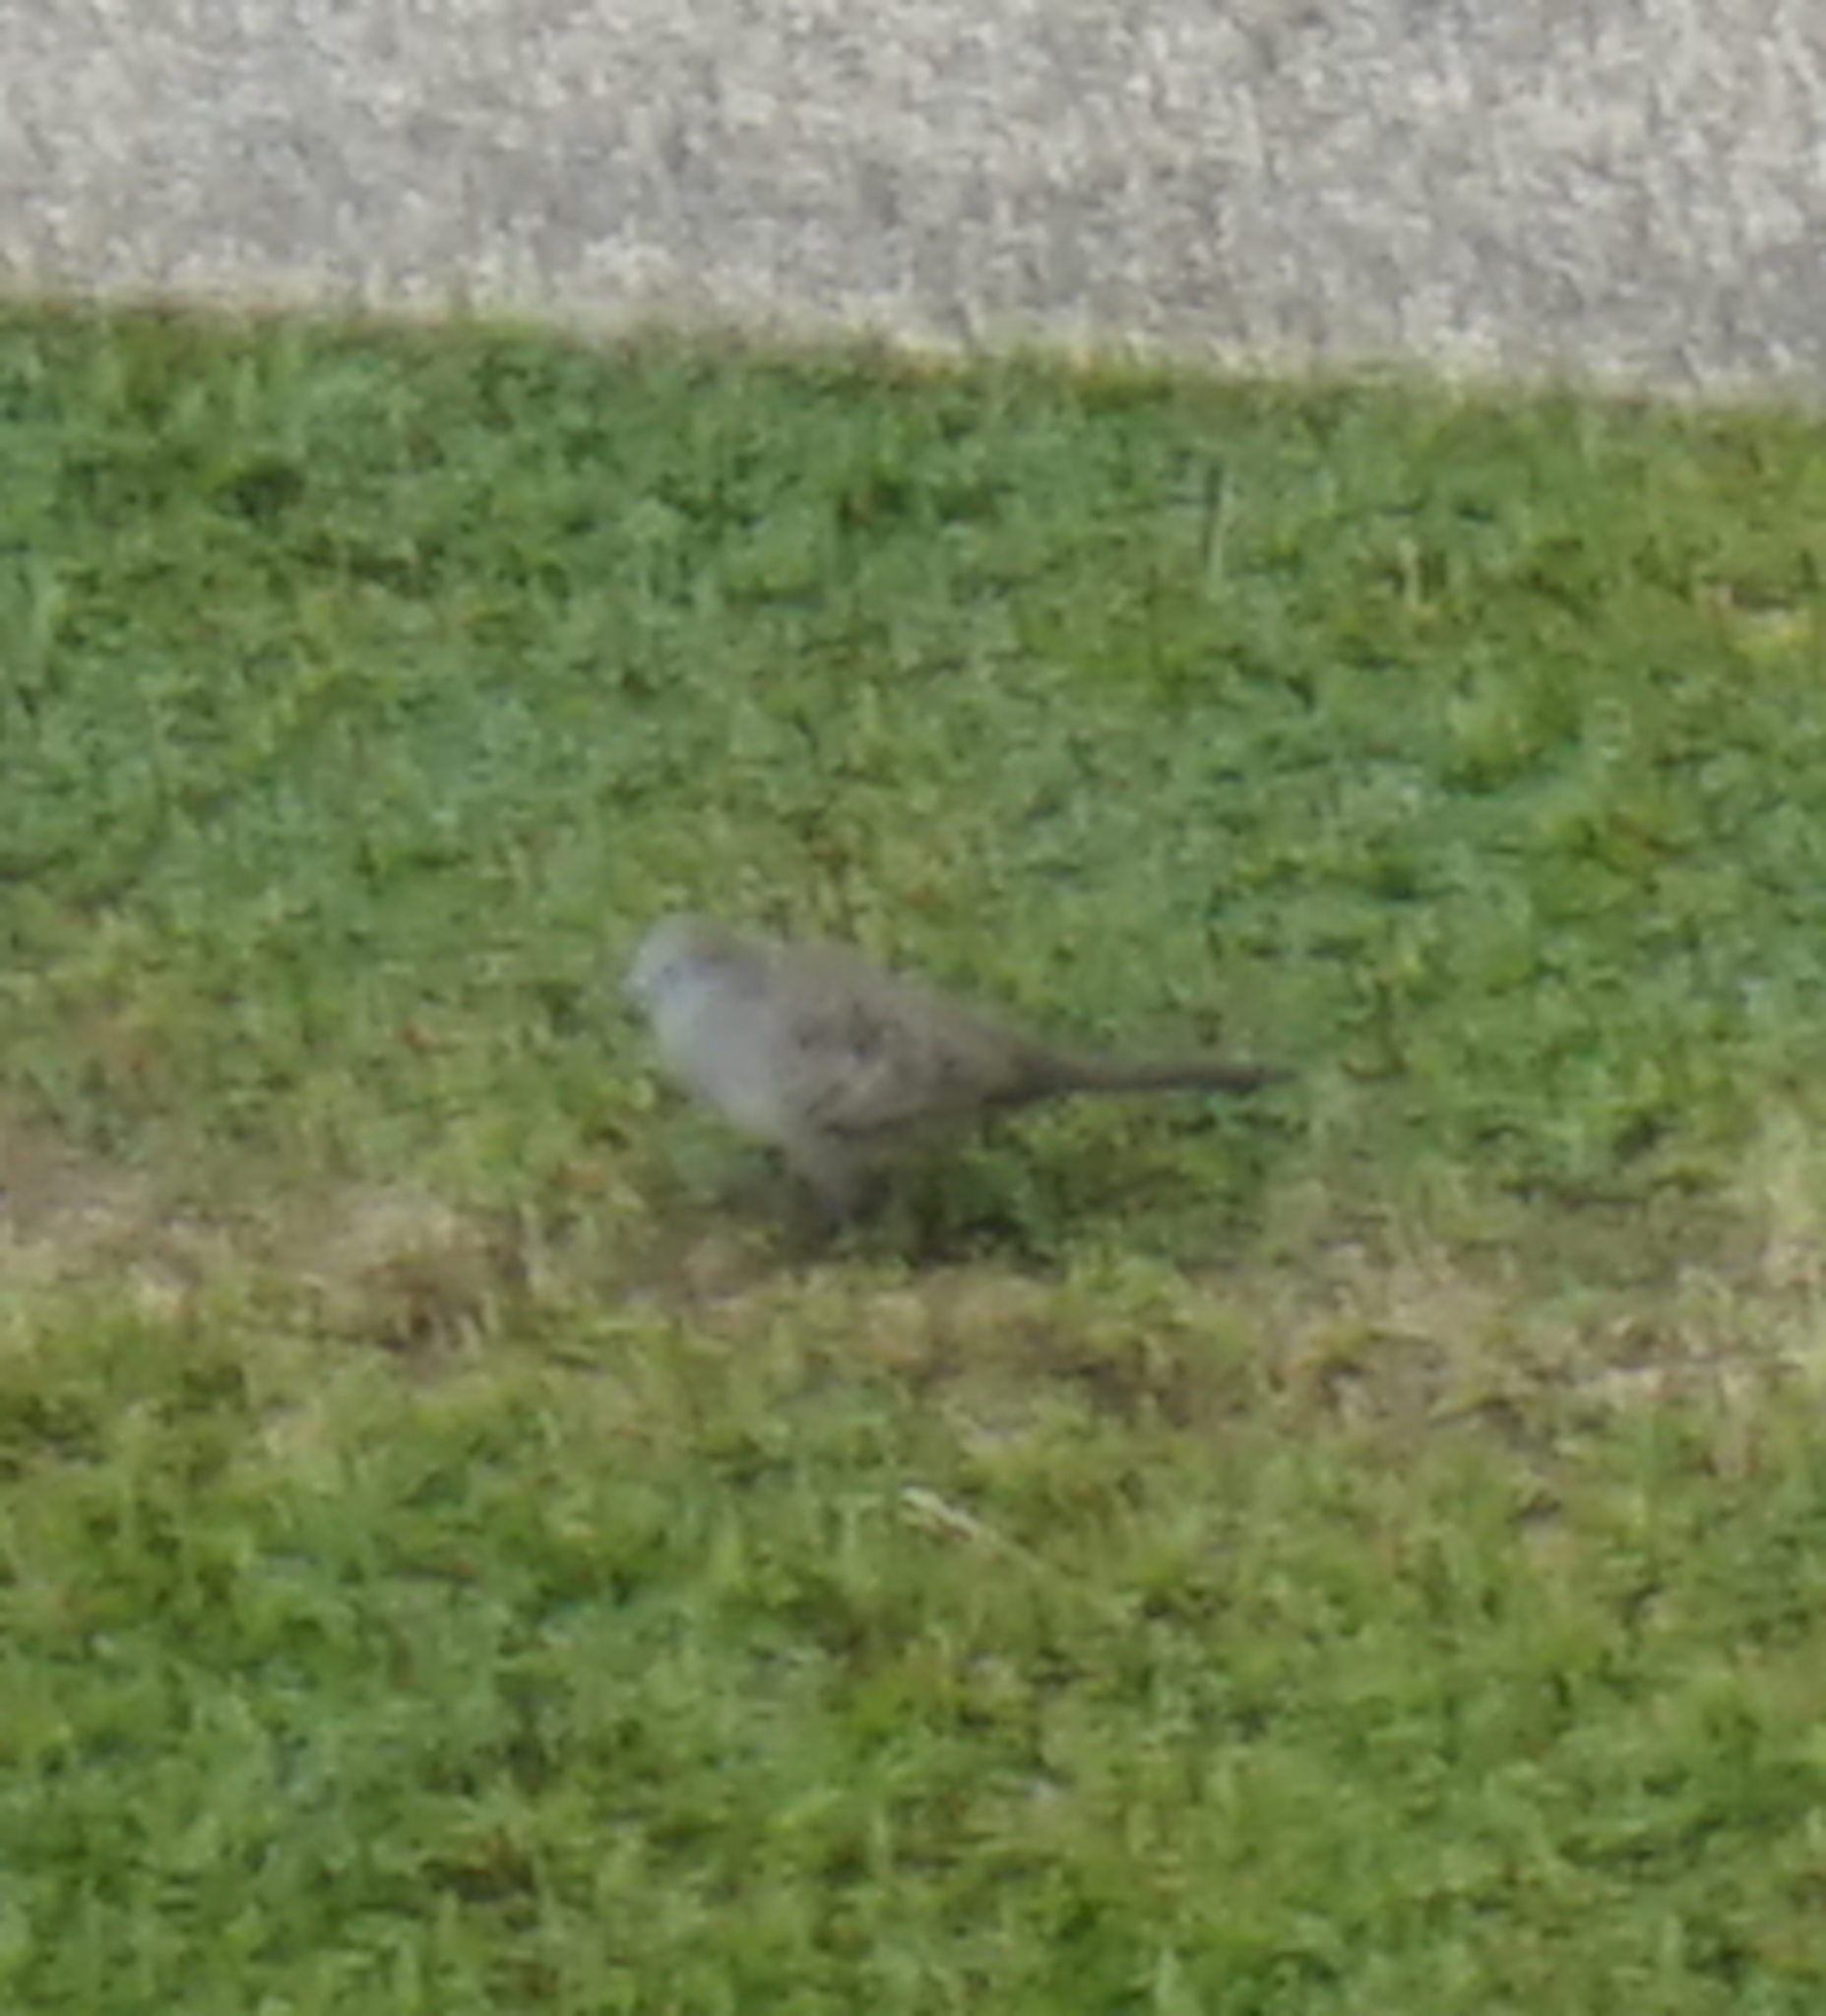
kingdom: Animalia
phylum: Chordata
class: Aves
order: Columbiformes
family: Columbidae
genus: Geopelia
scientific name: Geopelia striata
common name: Zebra dove
